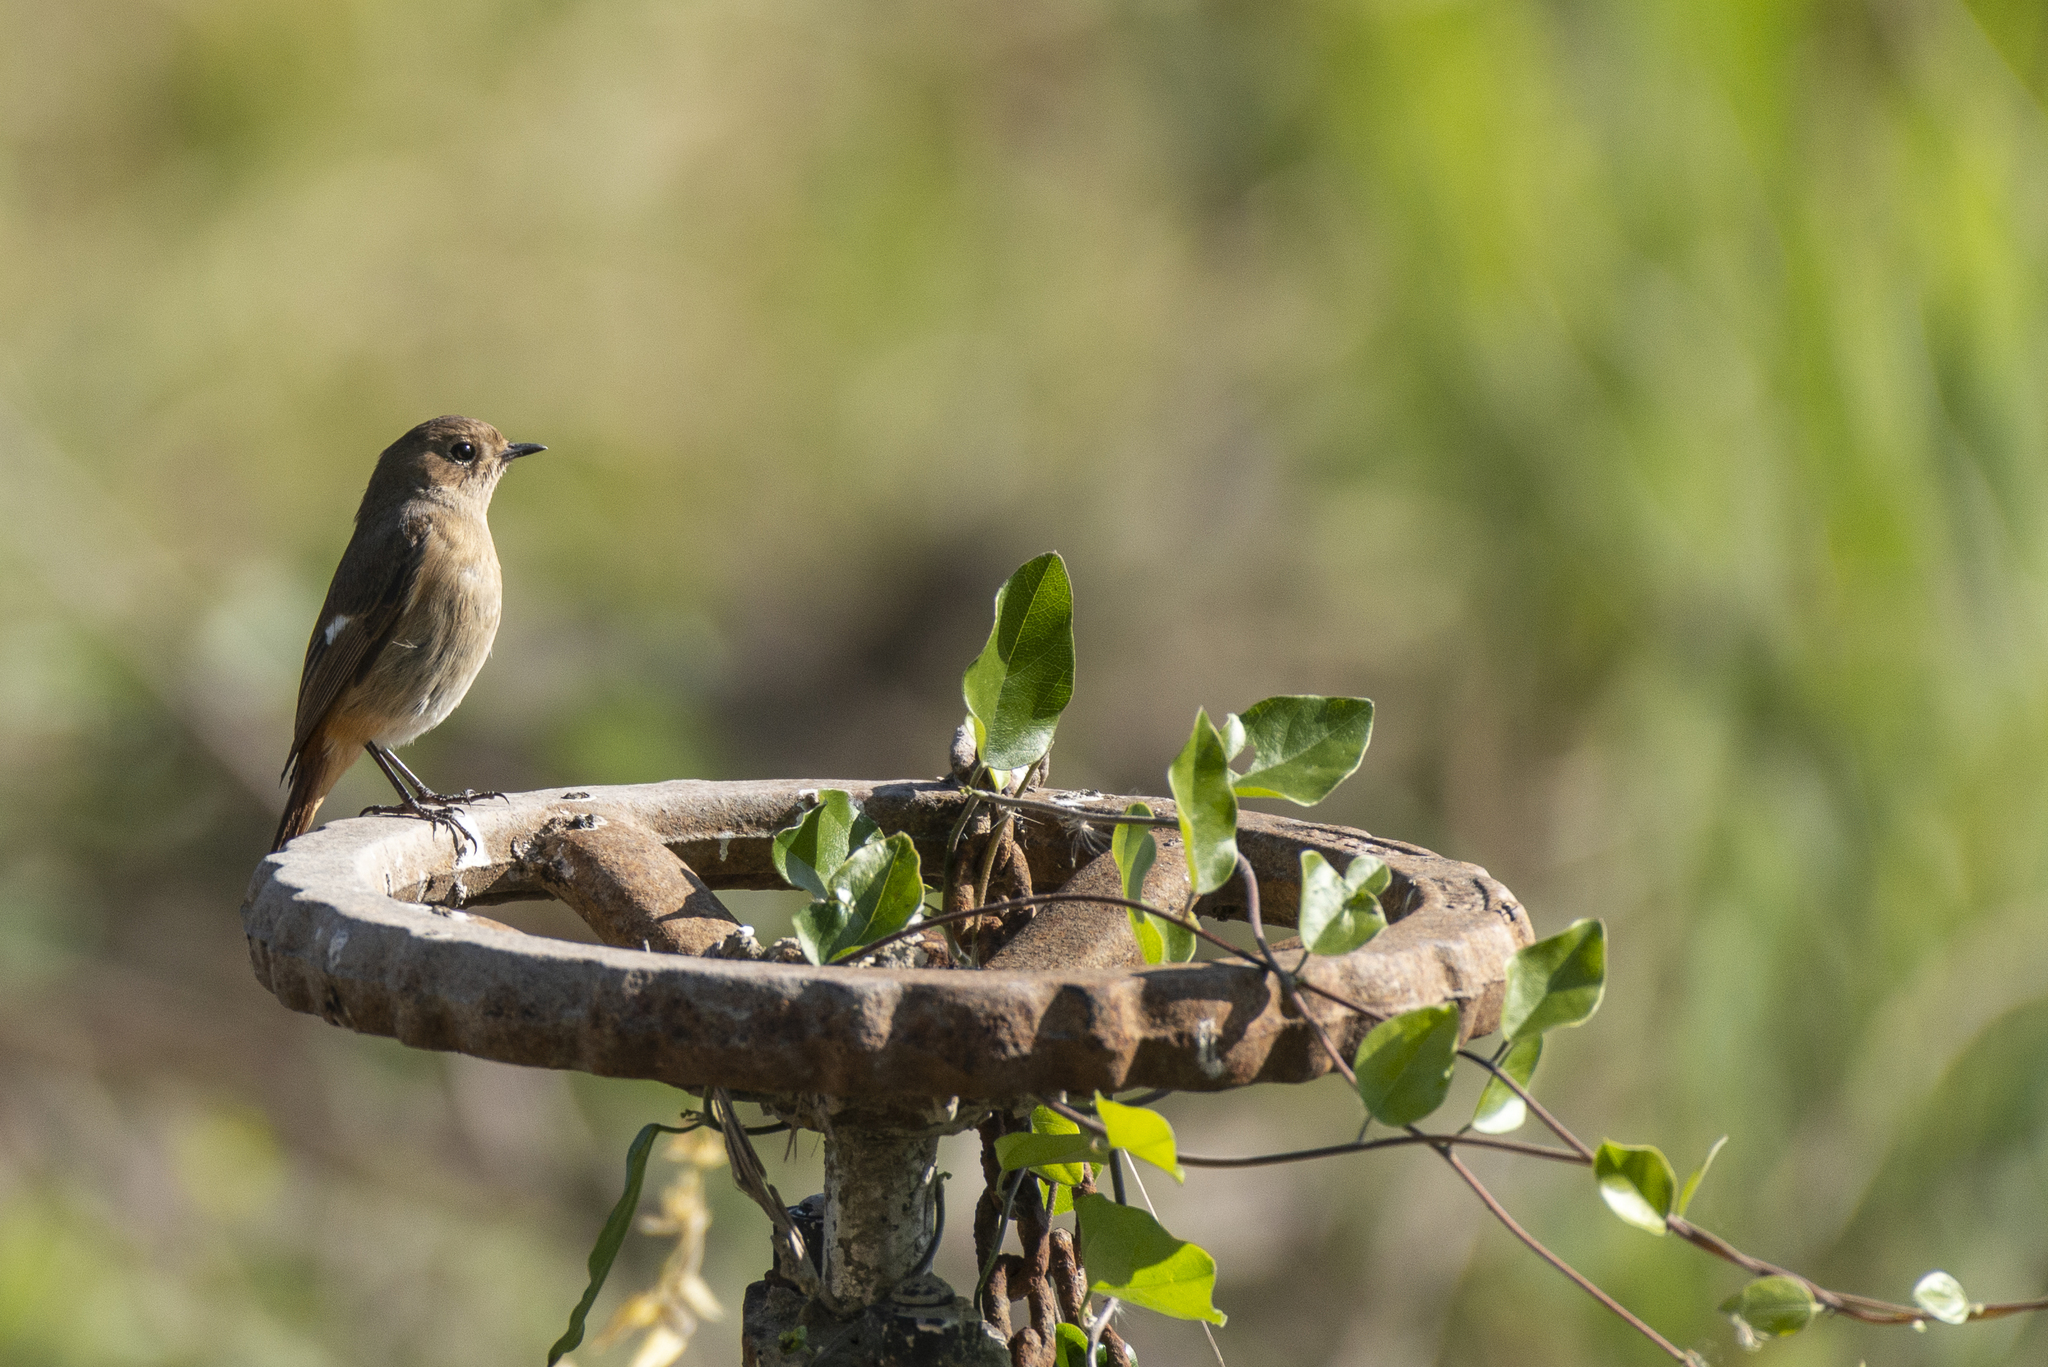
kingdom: Animalia
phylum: Chordata
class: Aves
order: Passeriformes
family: Muscicapidae
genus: Phoenicurus
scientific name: Phoenicurus auroreus
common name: Daurian redstart
